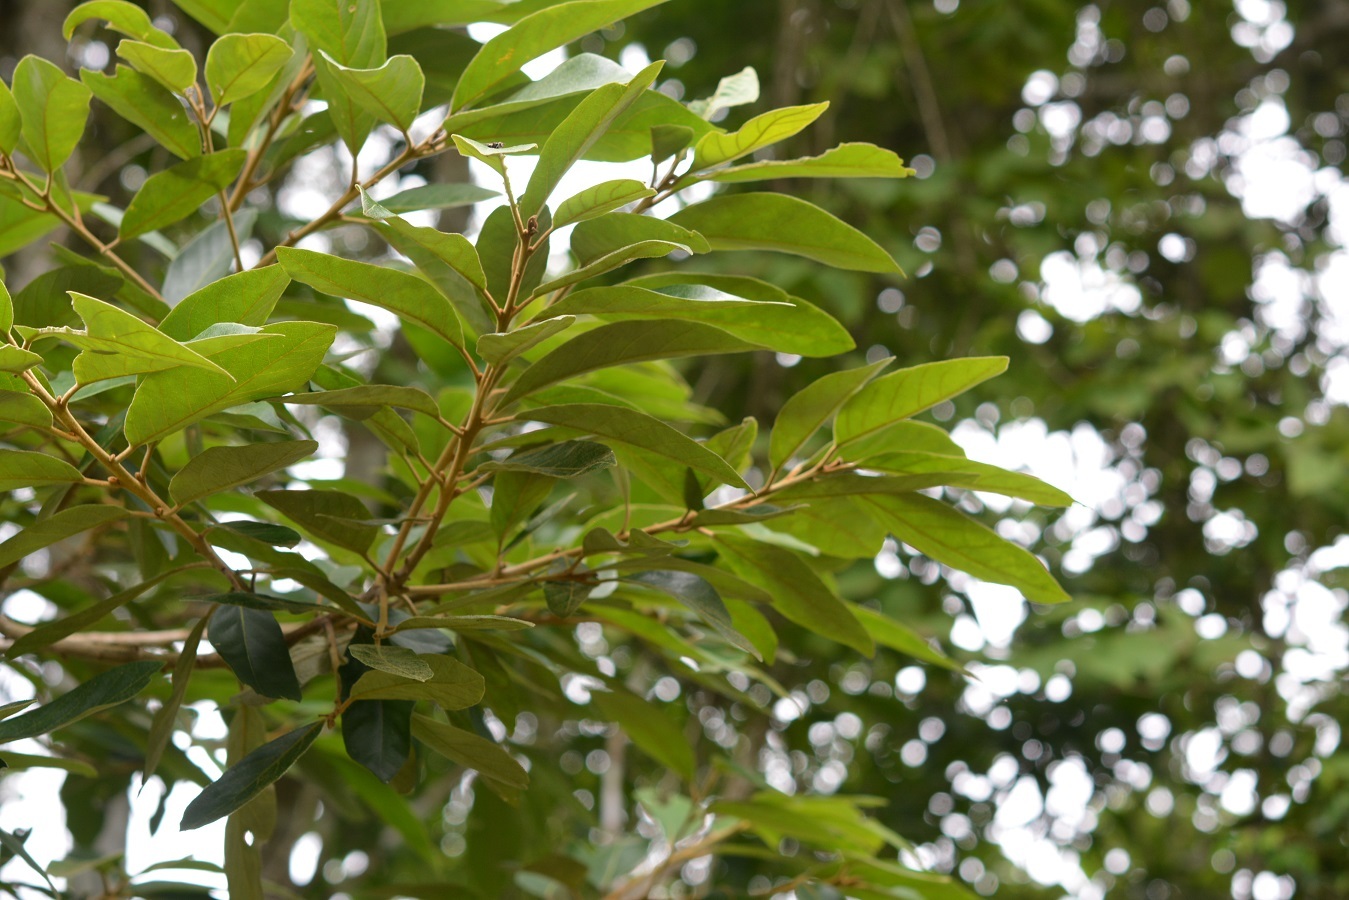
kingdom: Plantae
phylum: Tracheophyta
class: Magnoliopsida
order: Ericales
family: Styracaceae
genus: Styrax
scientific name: Styrax argenteus
